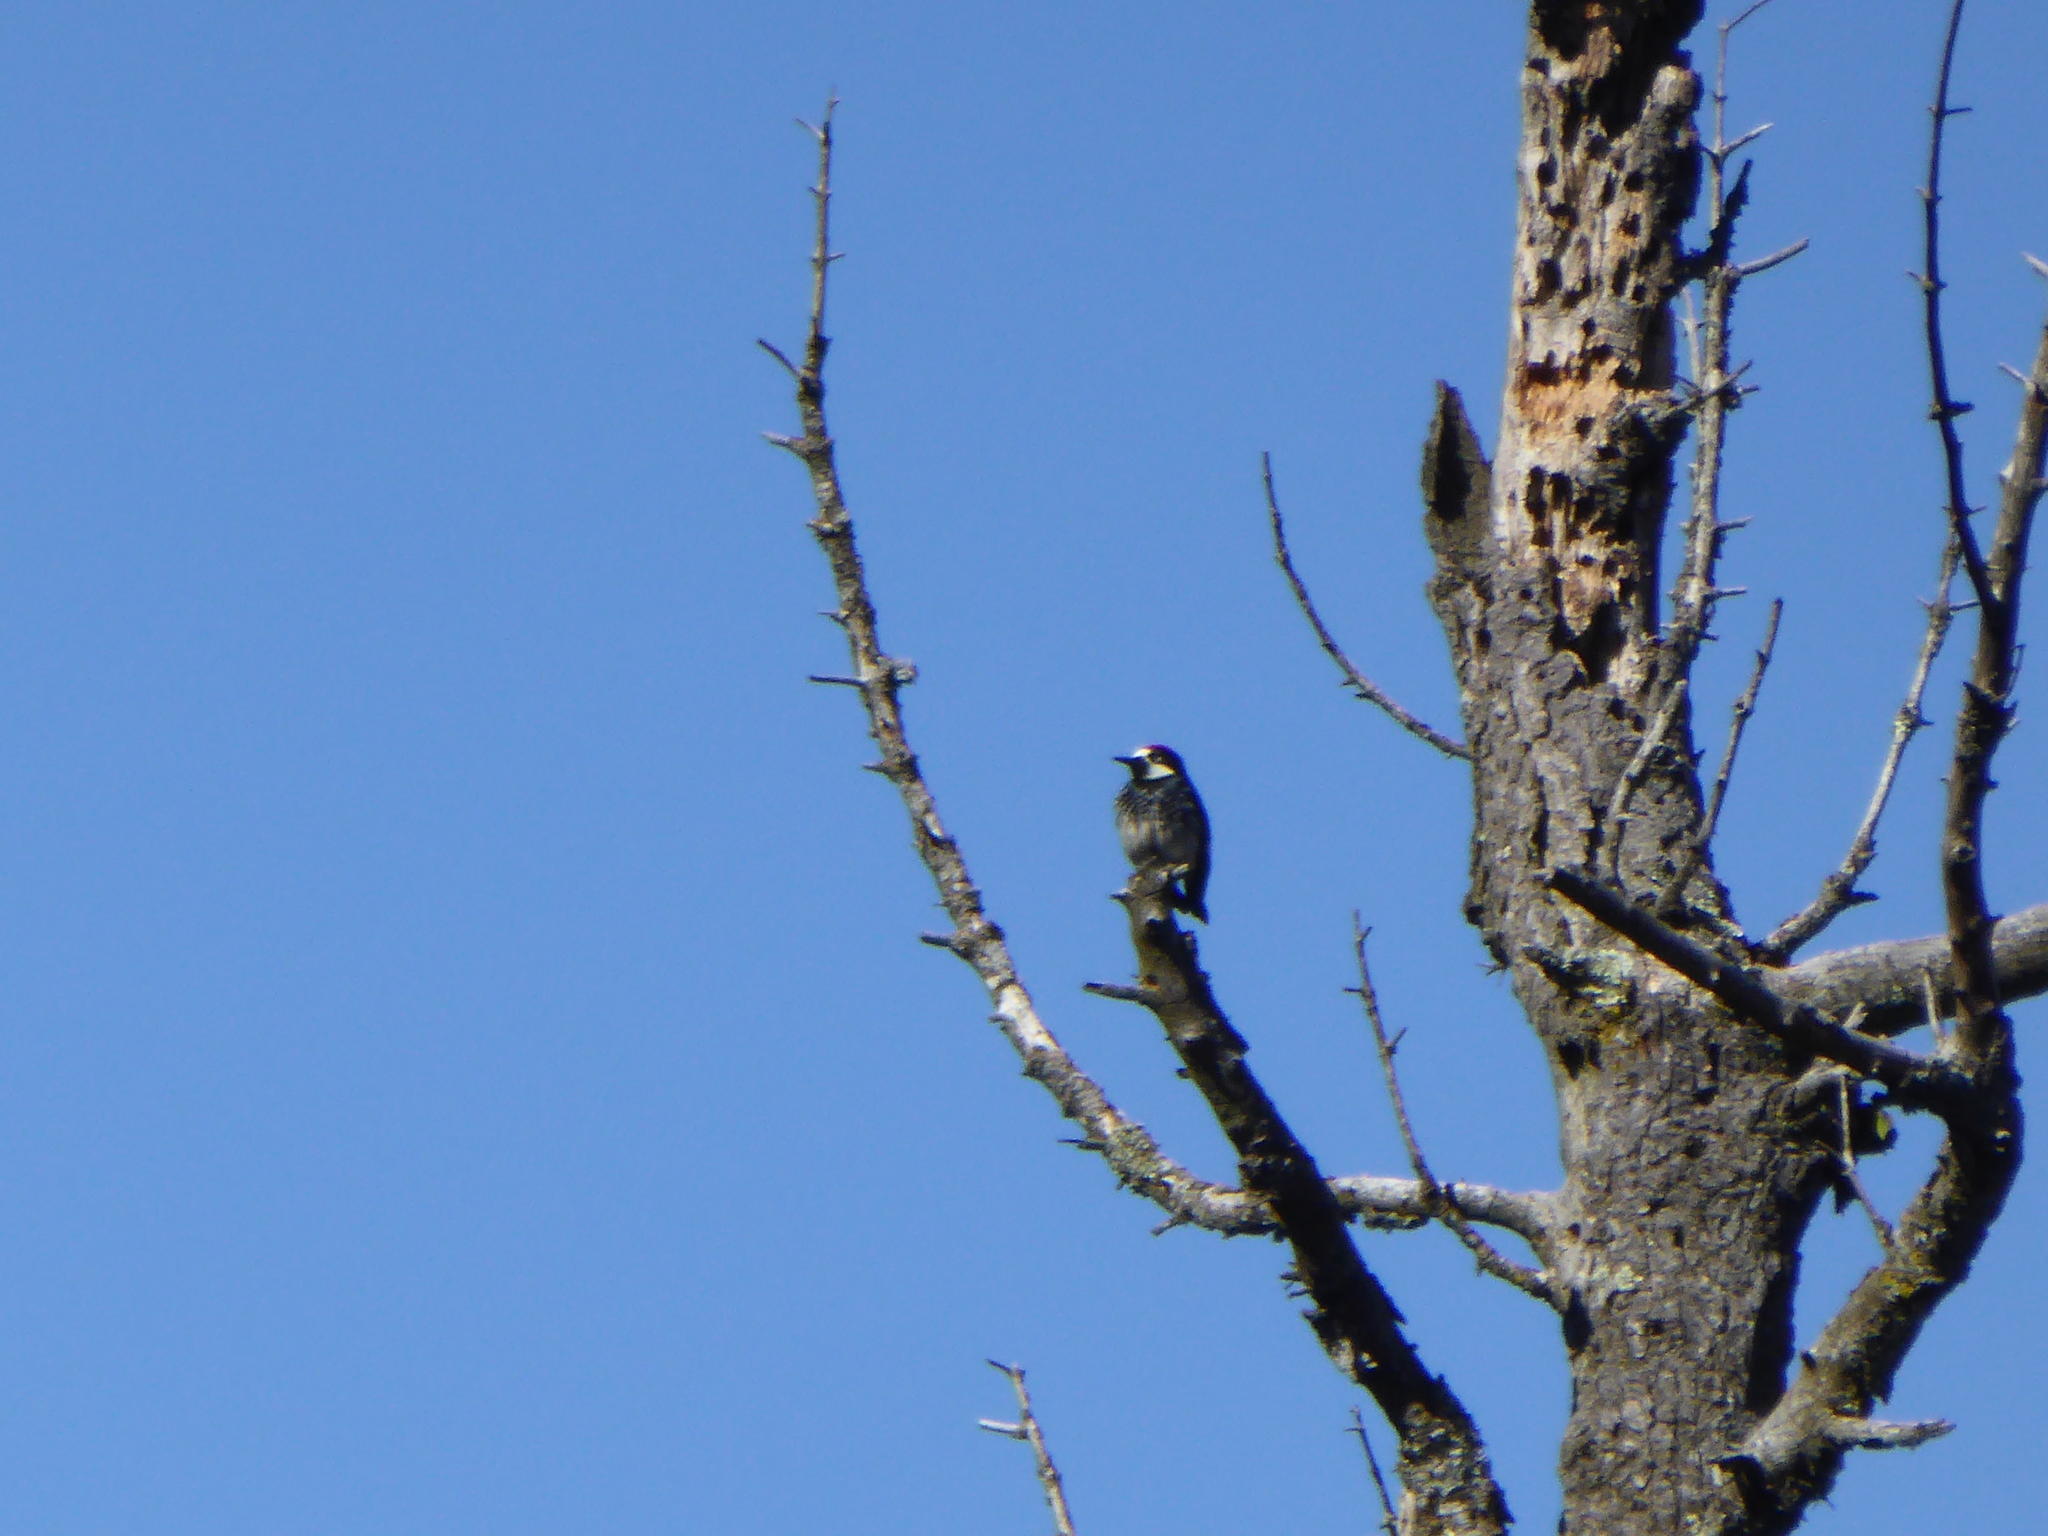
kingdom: Animalia
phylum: Chordata
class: Aves
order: Piciformes
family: Picidae
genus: Melanerpes
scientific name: Melanerpes formicivorus
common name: Acorn woodpecker
